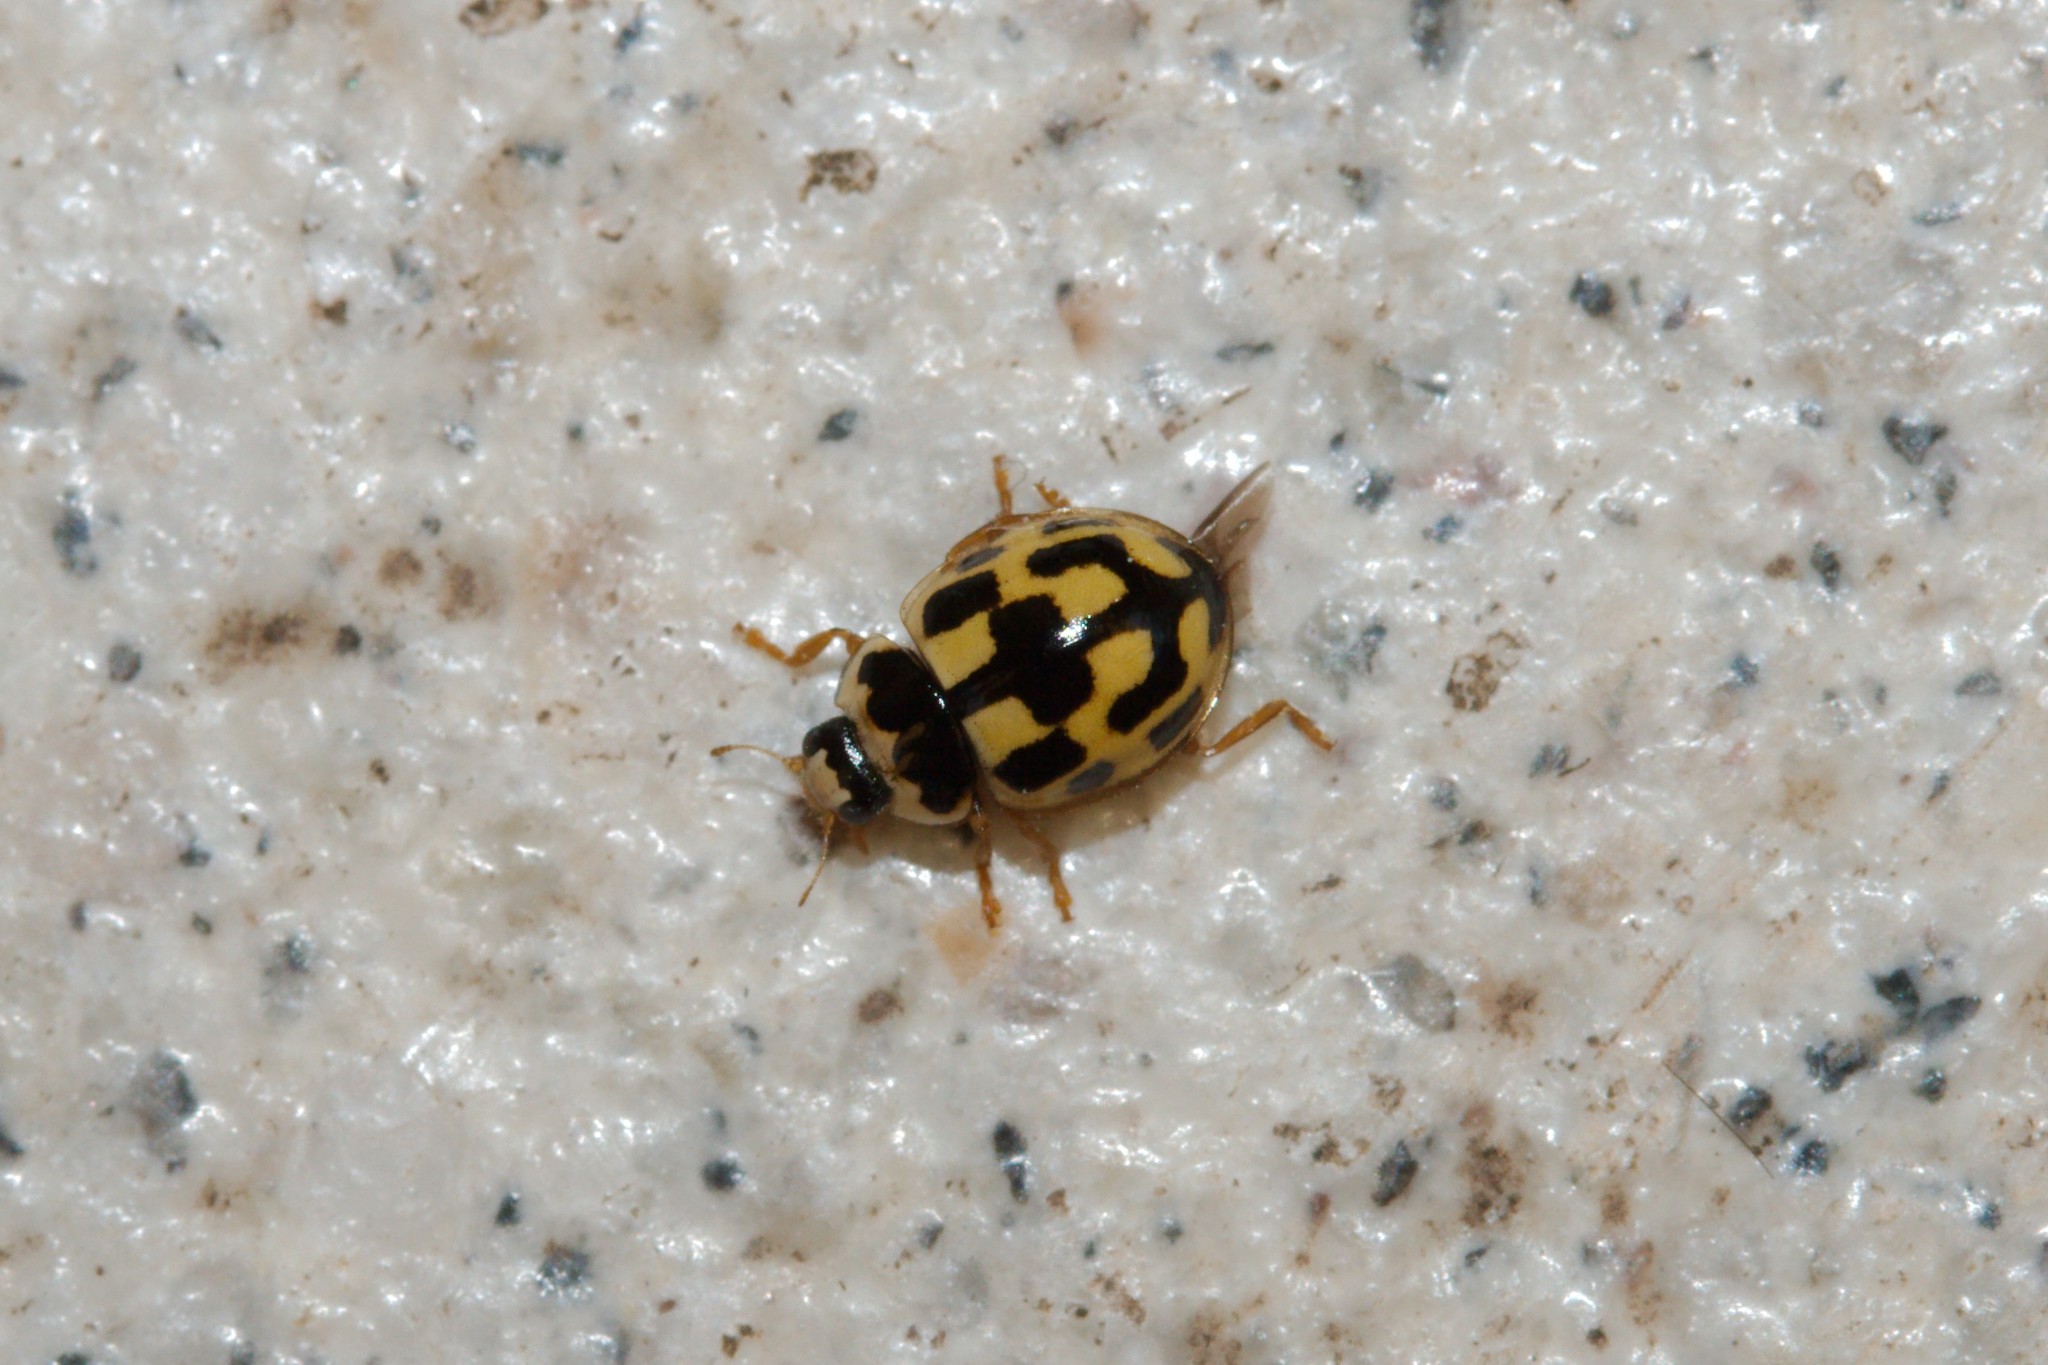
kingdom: Animalia
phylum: Arthropoda
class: Insecta
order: Coleoptera
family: Coccinellidae
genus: Propylaea
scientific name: Propylaea quatuordecimpunctata
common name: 14-spotted ladybird beetle
